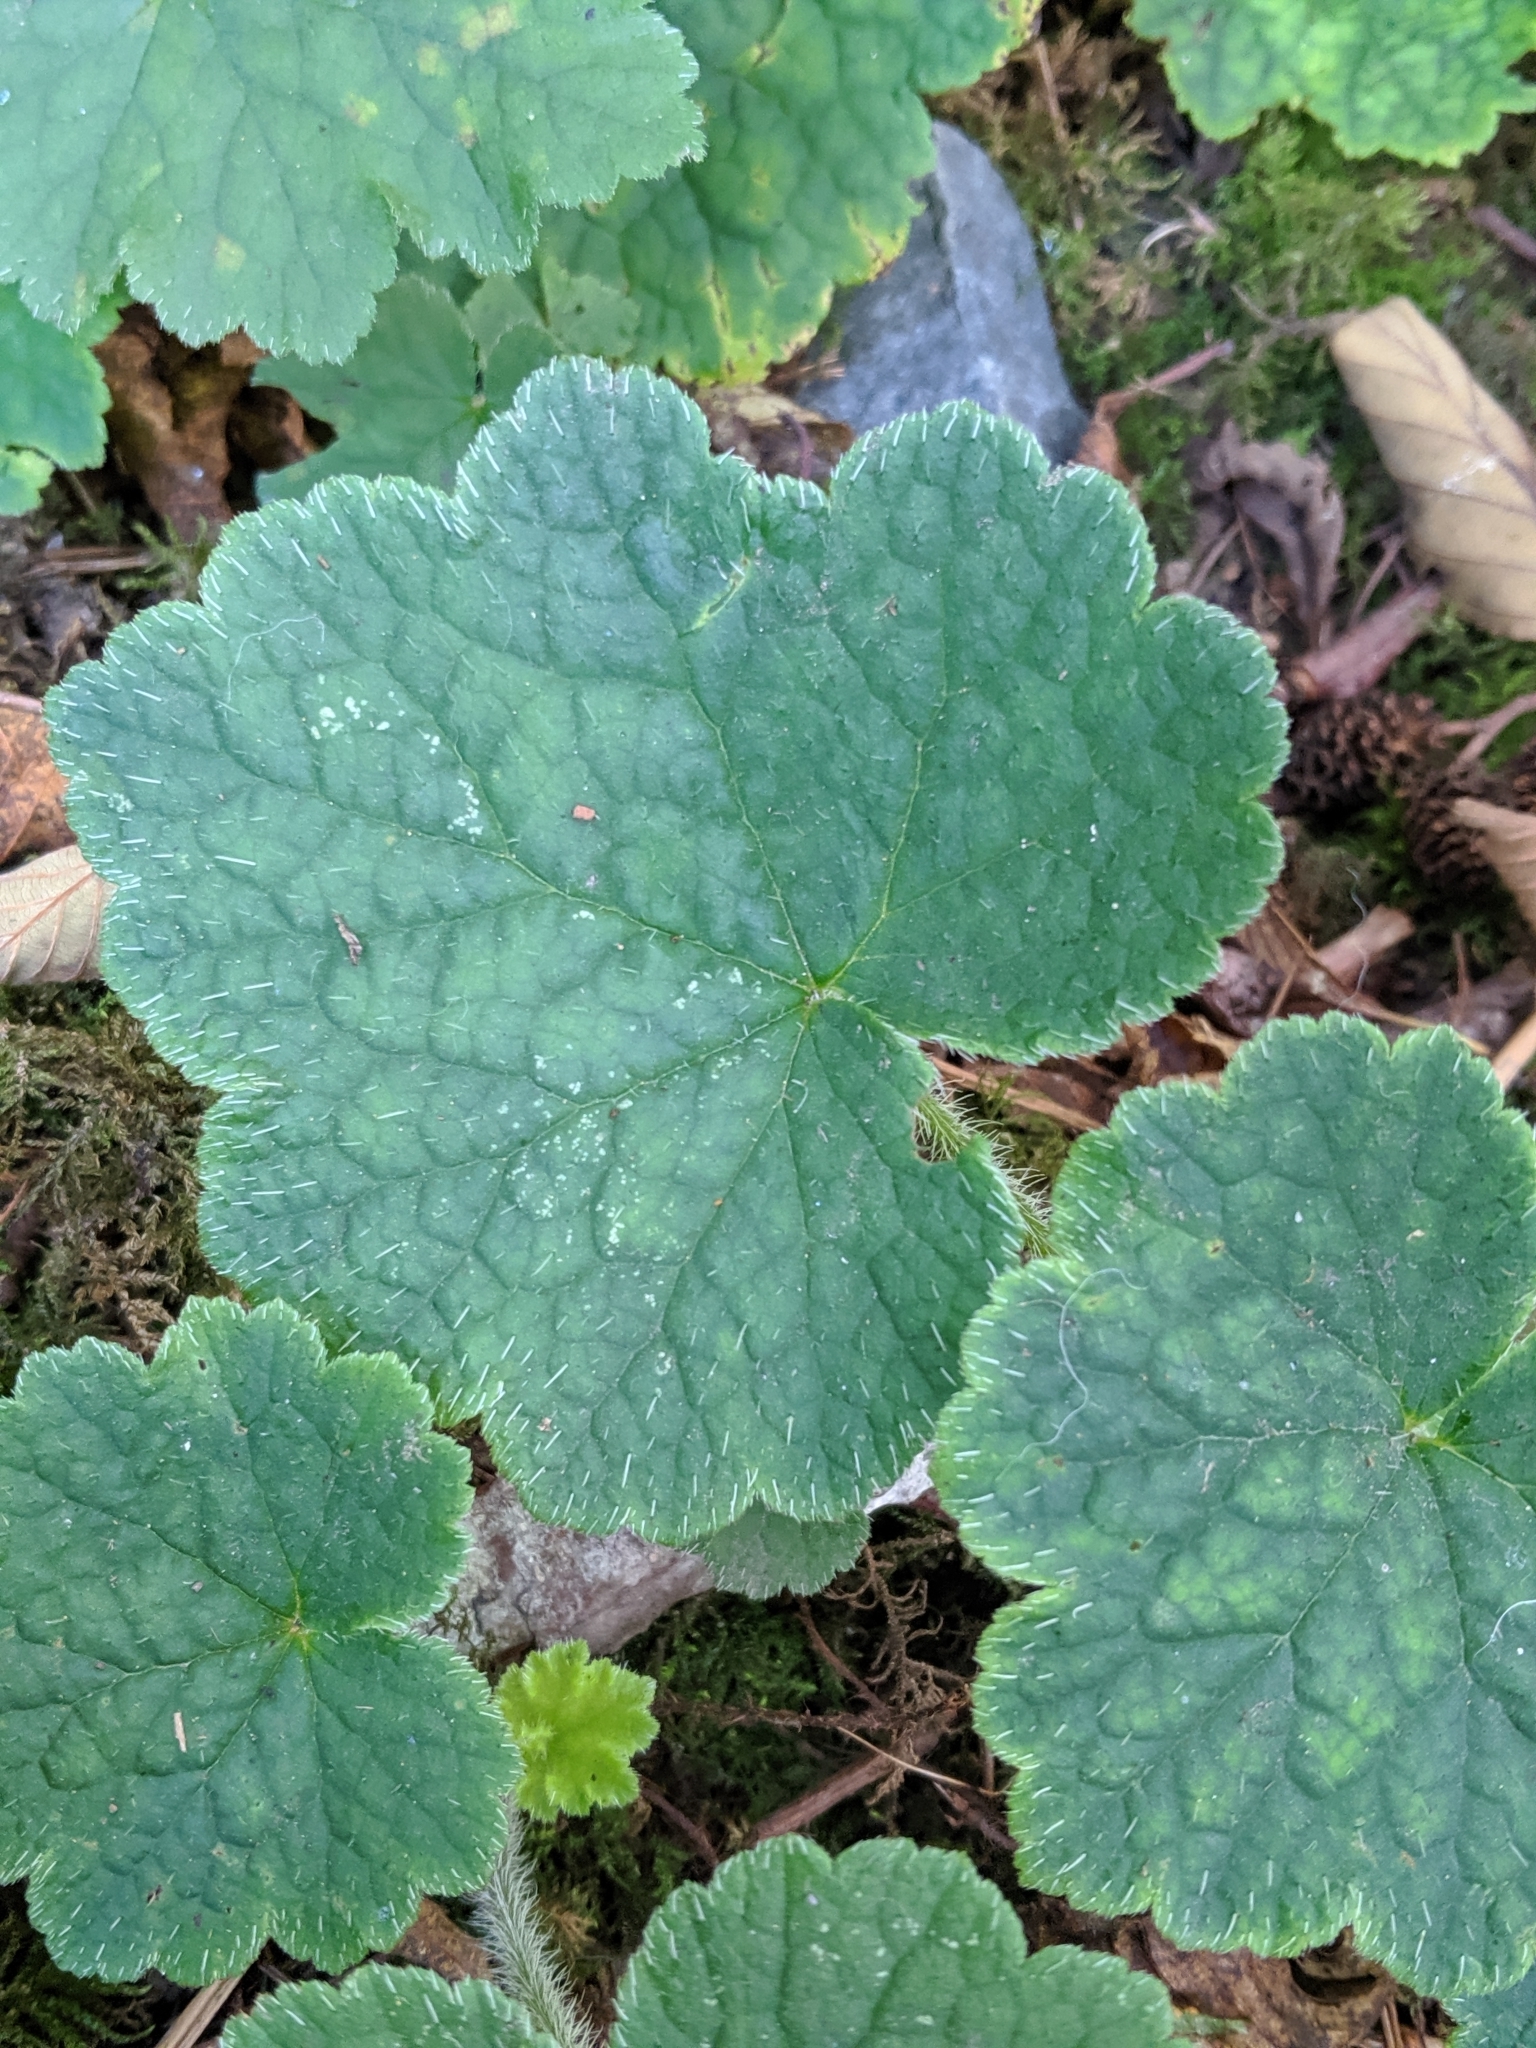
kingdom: Plantae
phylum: Tracheophyta
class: Magnoliopsida
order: Saxifragales
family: Saxifragaceae
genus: Tellima
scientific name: Tellima grandiflora
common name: Fringecups
